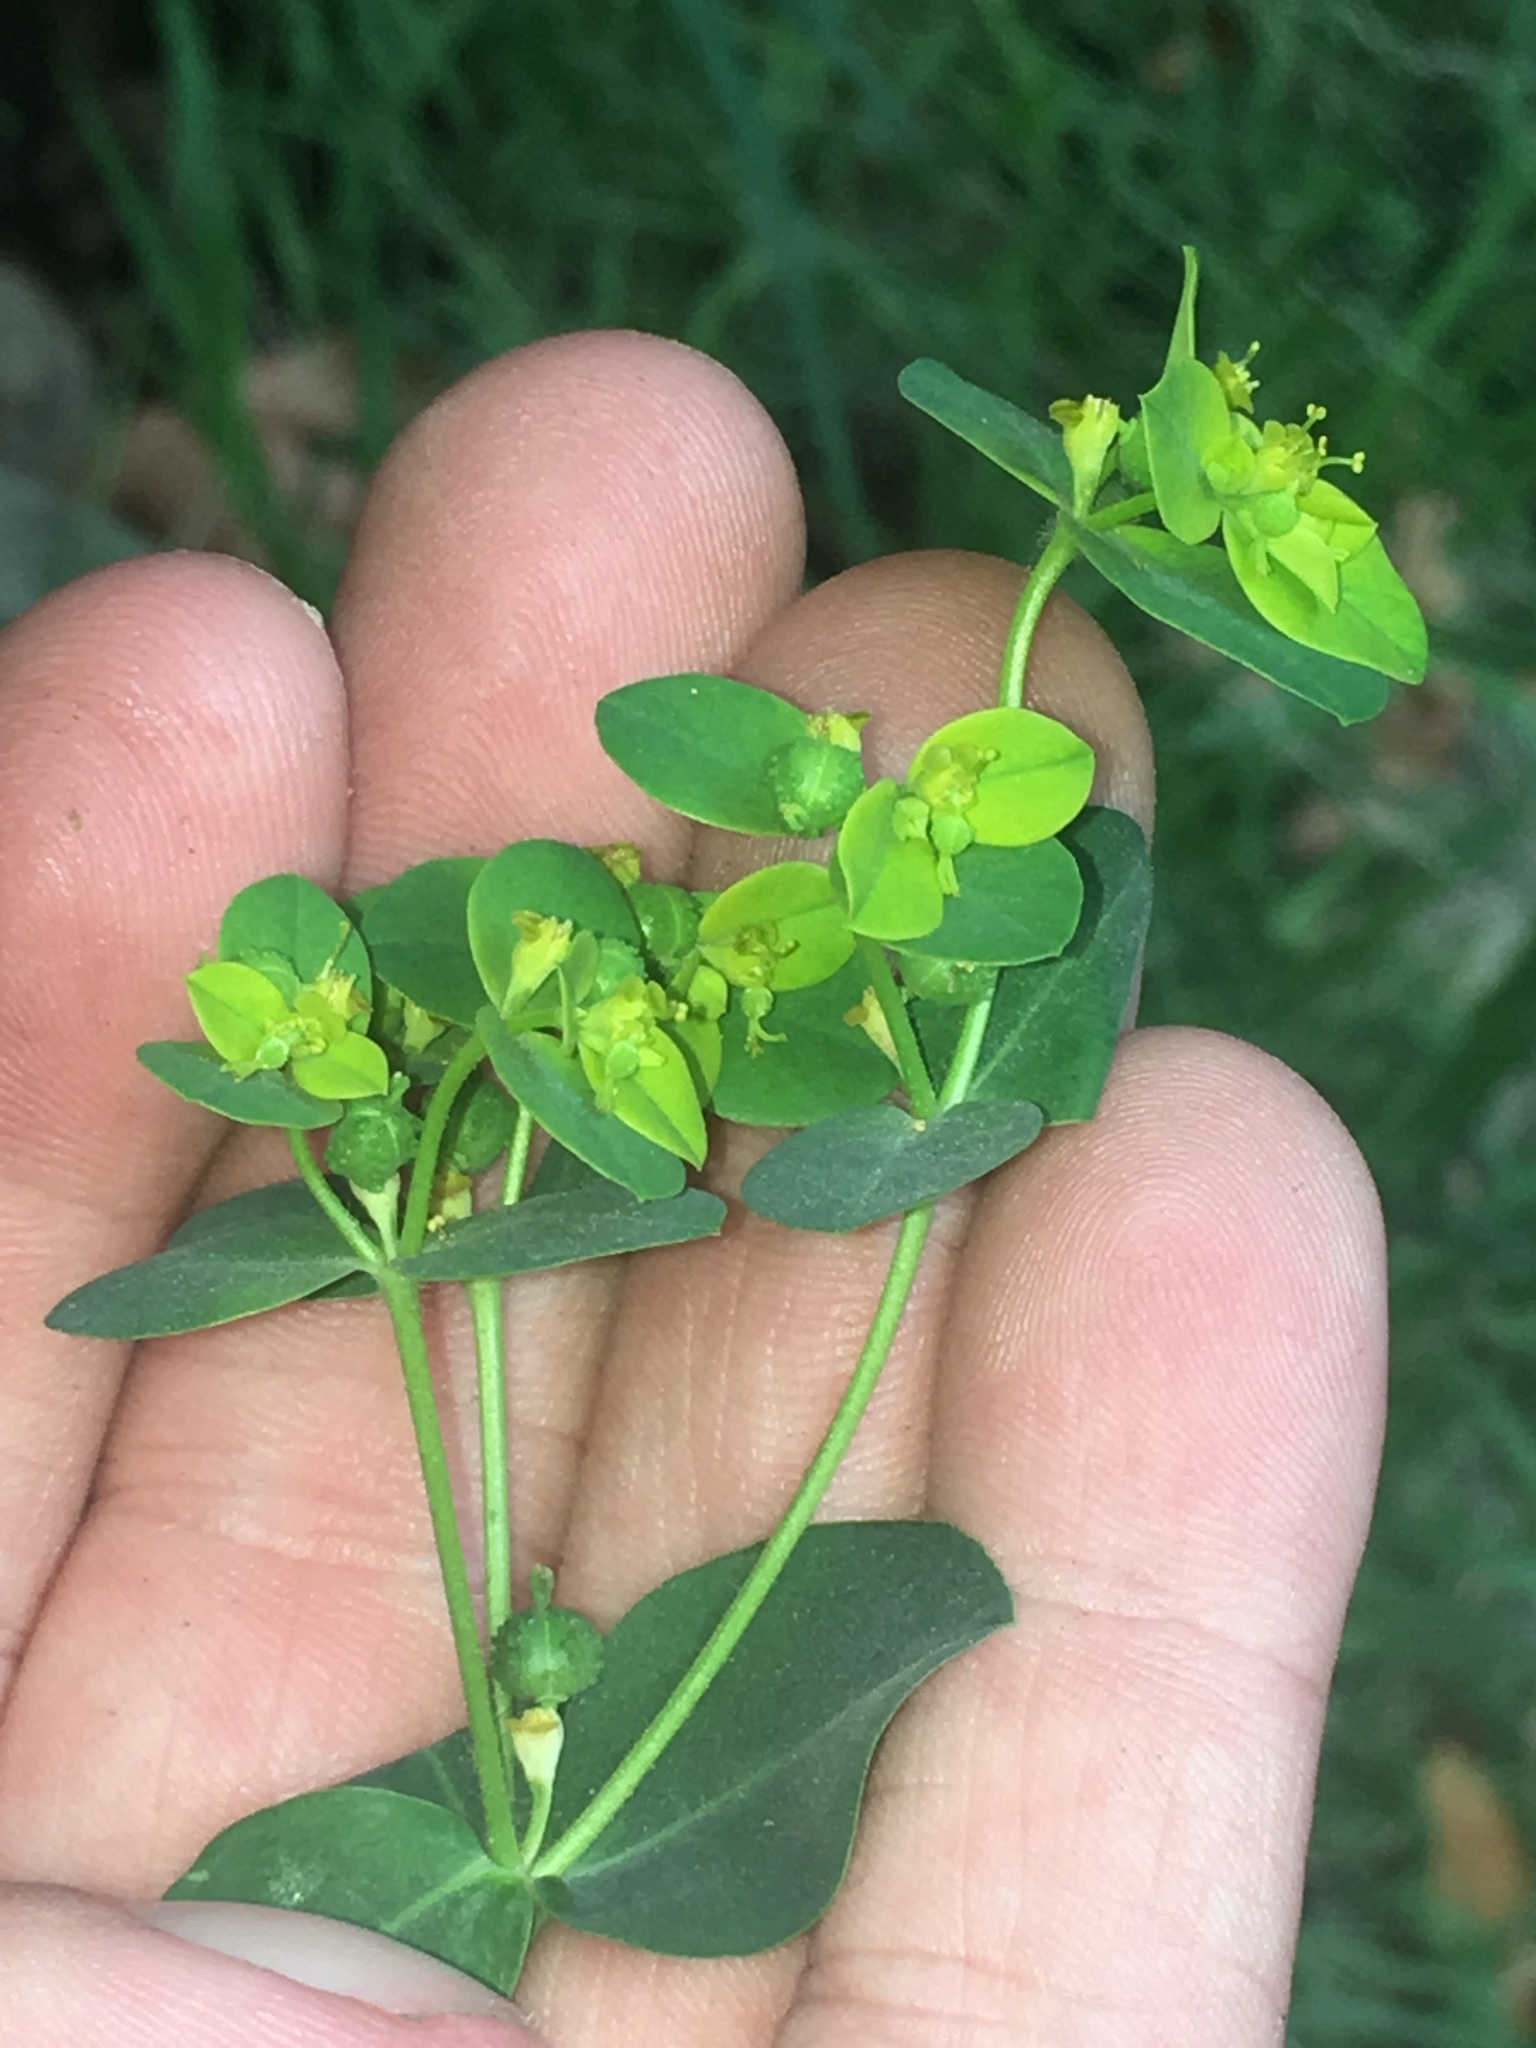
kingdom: Plantae
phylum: Tracheophyta
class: Magnoliopsida
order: Malpighiales
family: Euphorbiaceae
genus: Euphorbia
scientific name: Euphorbia oblongata
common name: Balkan spurge
